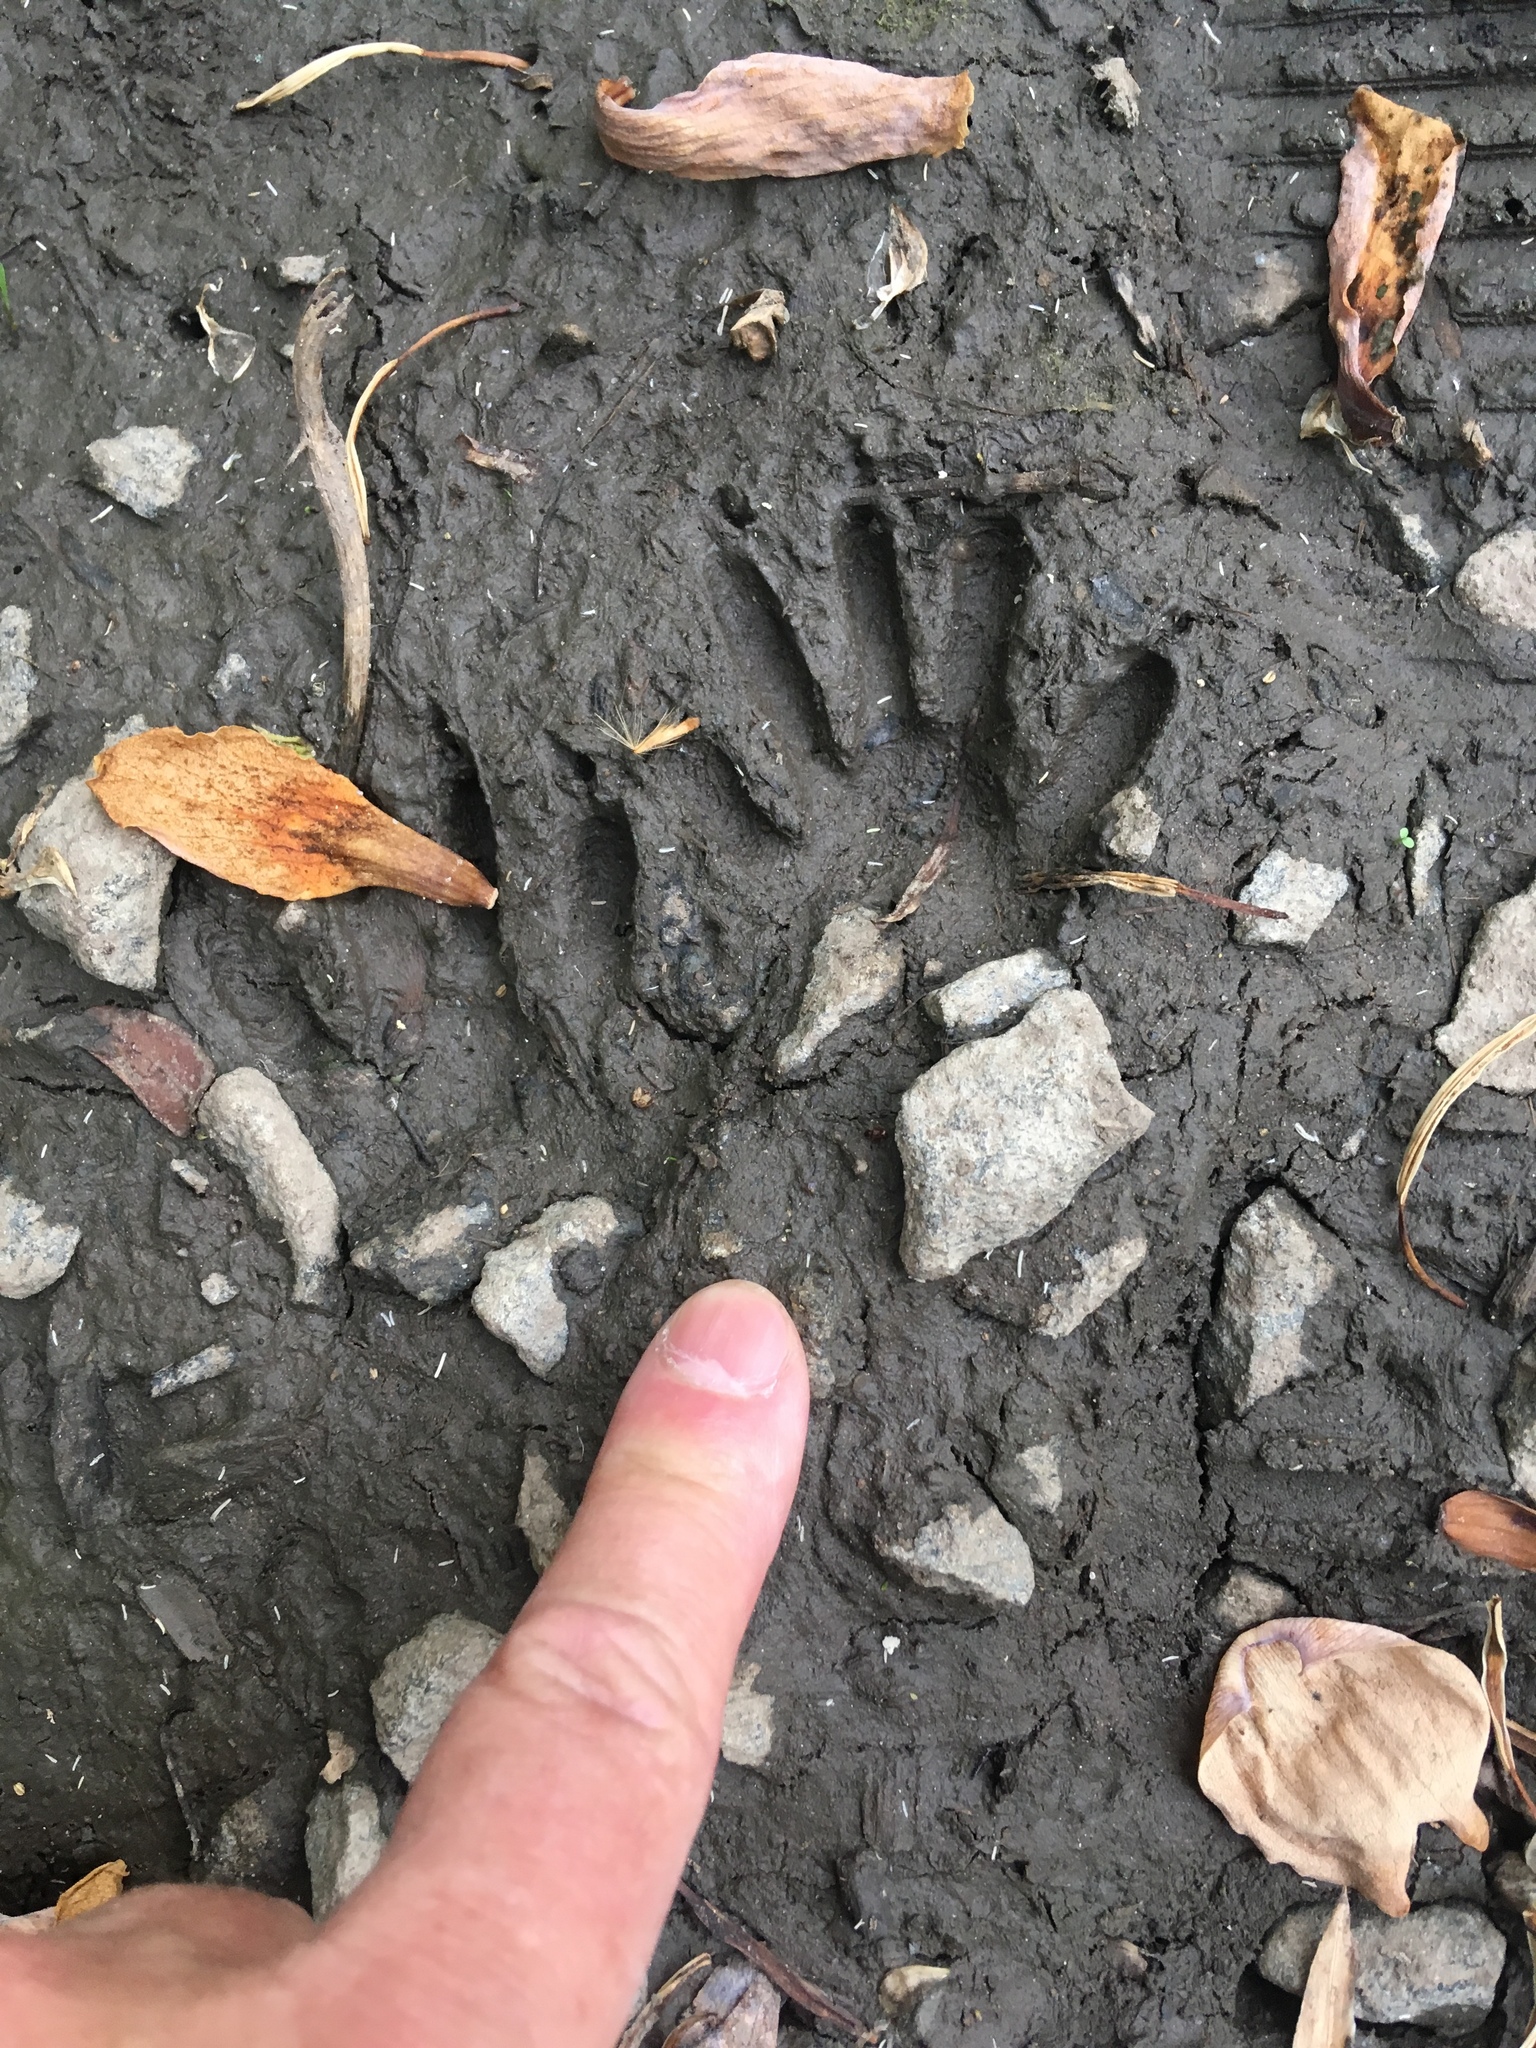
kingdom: Animalia
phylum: Chordata
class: Mammalia
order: Carnivora
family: Procyonidae
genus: Procyon
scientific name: Procyon lotor
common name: Raccoon
